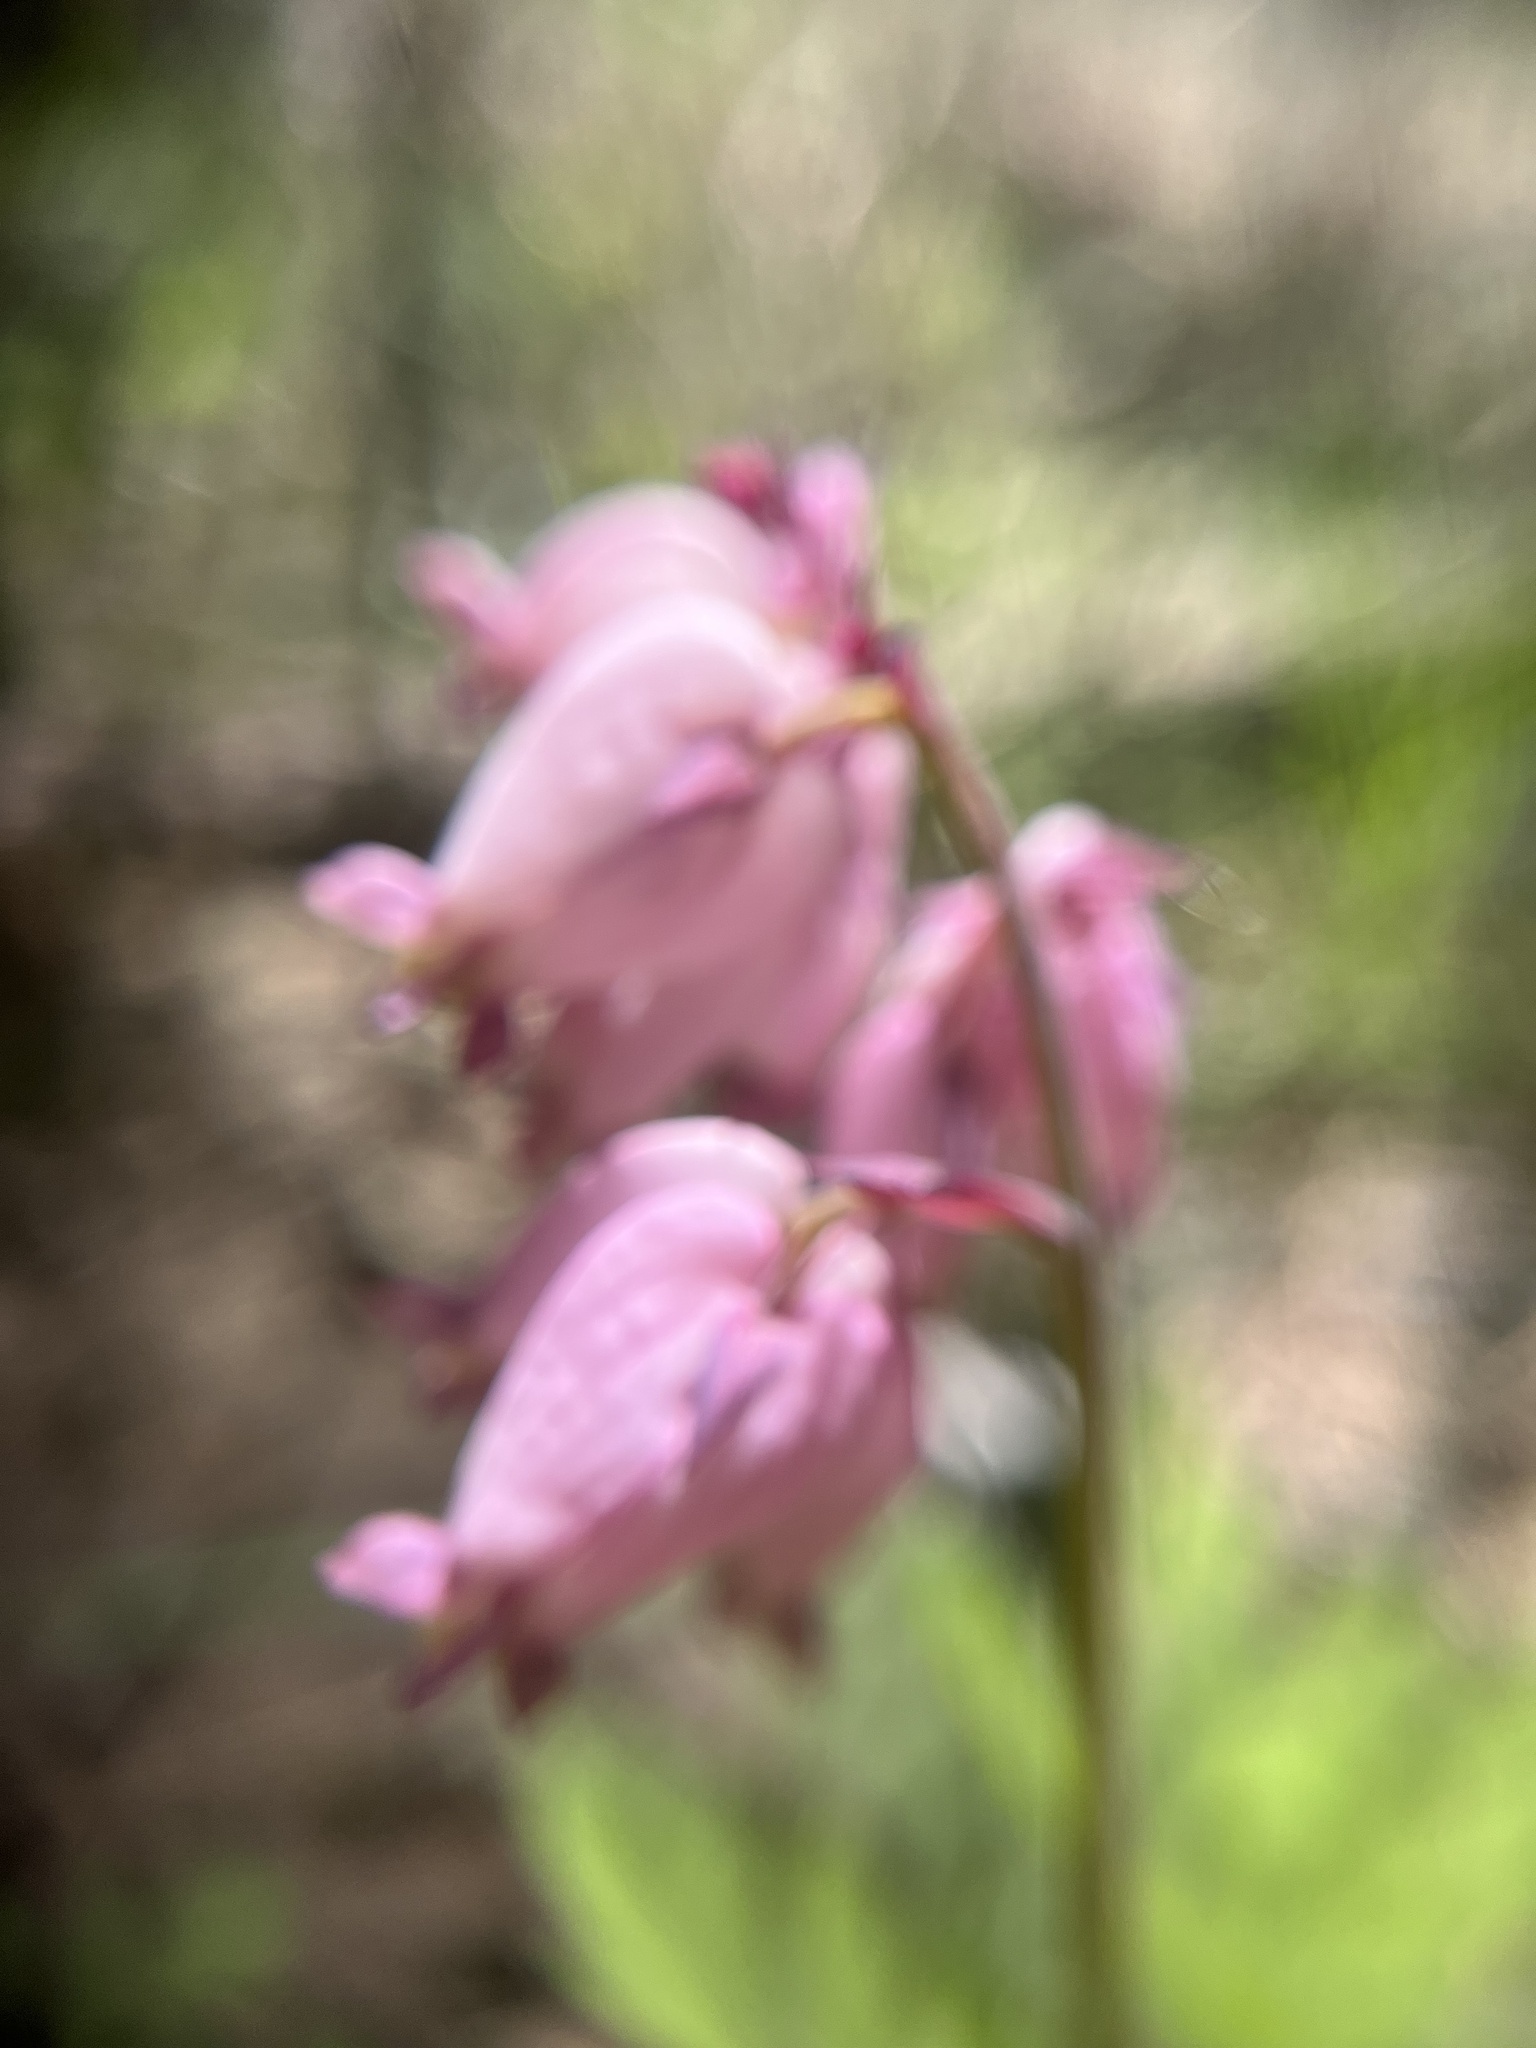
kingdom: Plantae
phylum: Tracheophyta
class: Magnoliopsida
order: Ranunculales
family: Papaveraceae
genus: Dicentra
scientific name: Dicentra formosa
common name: Bleeding-heart
